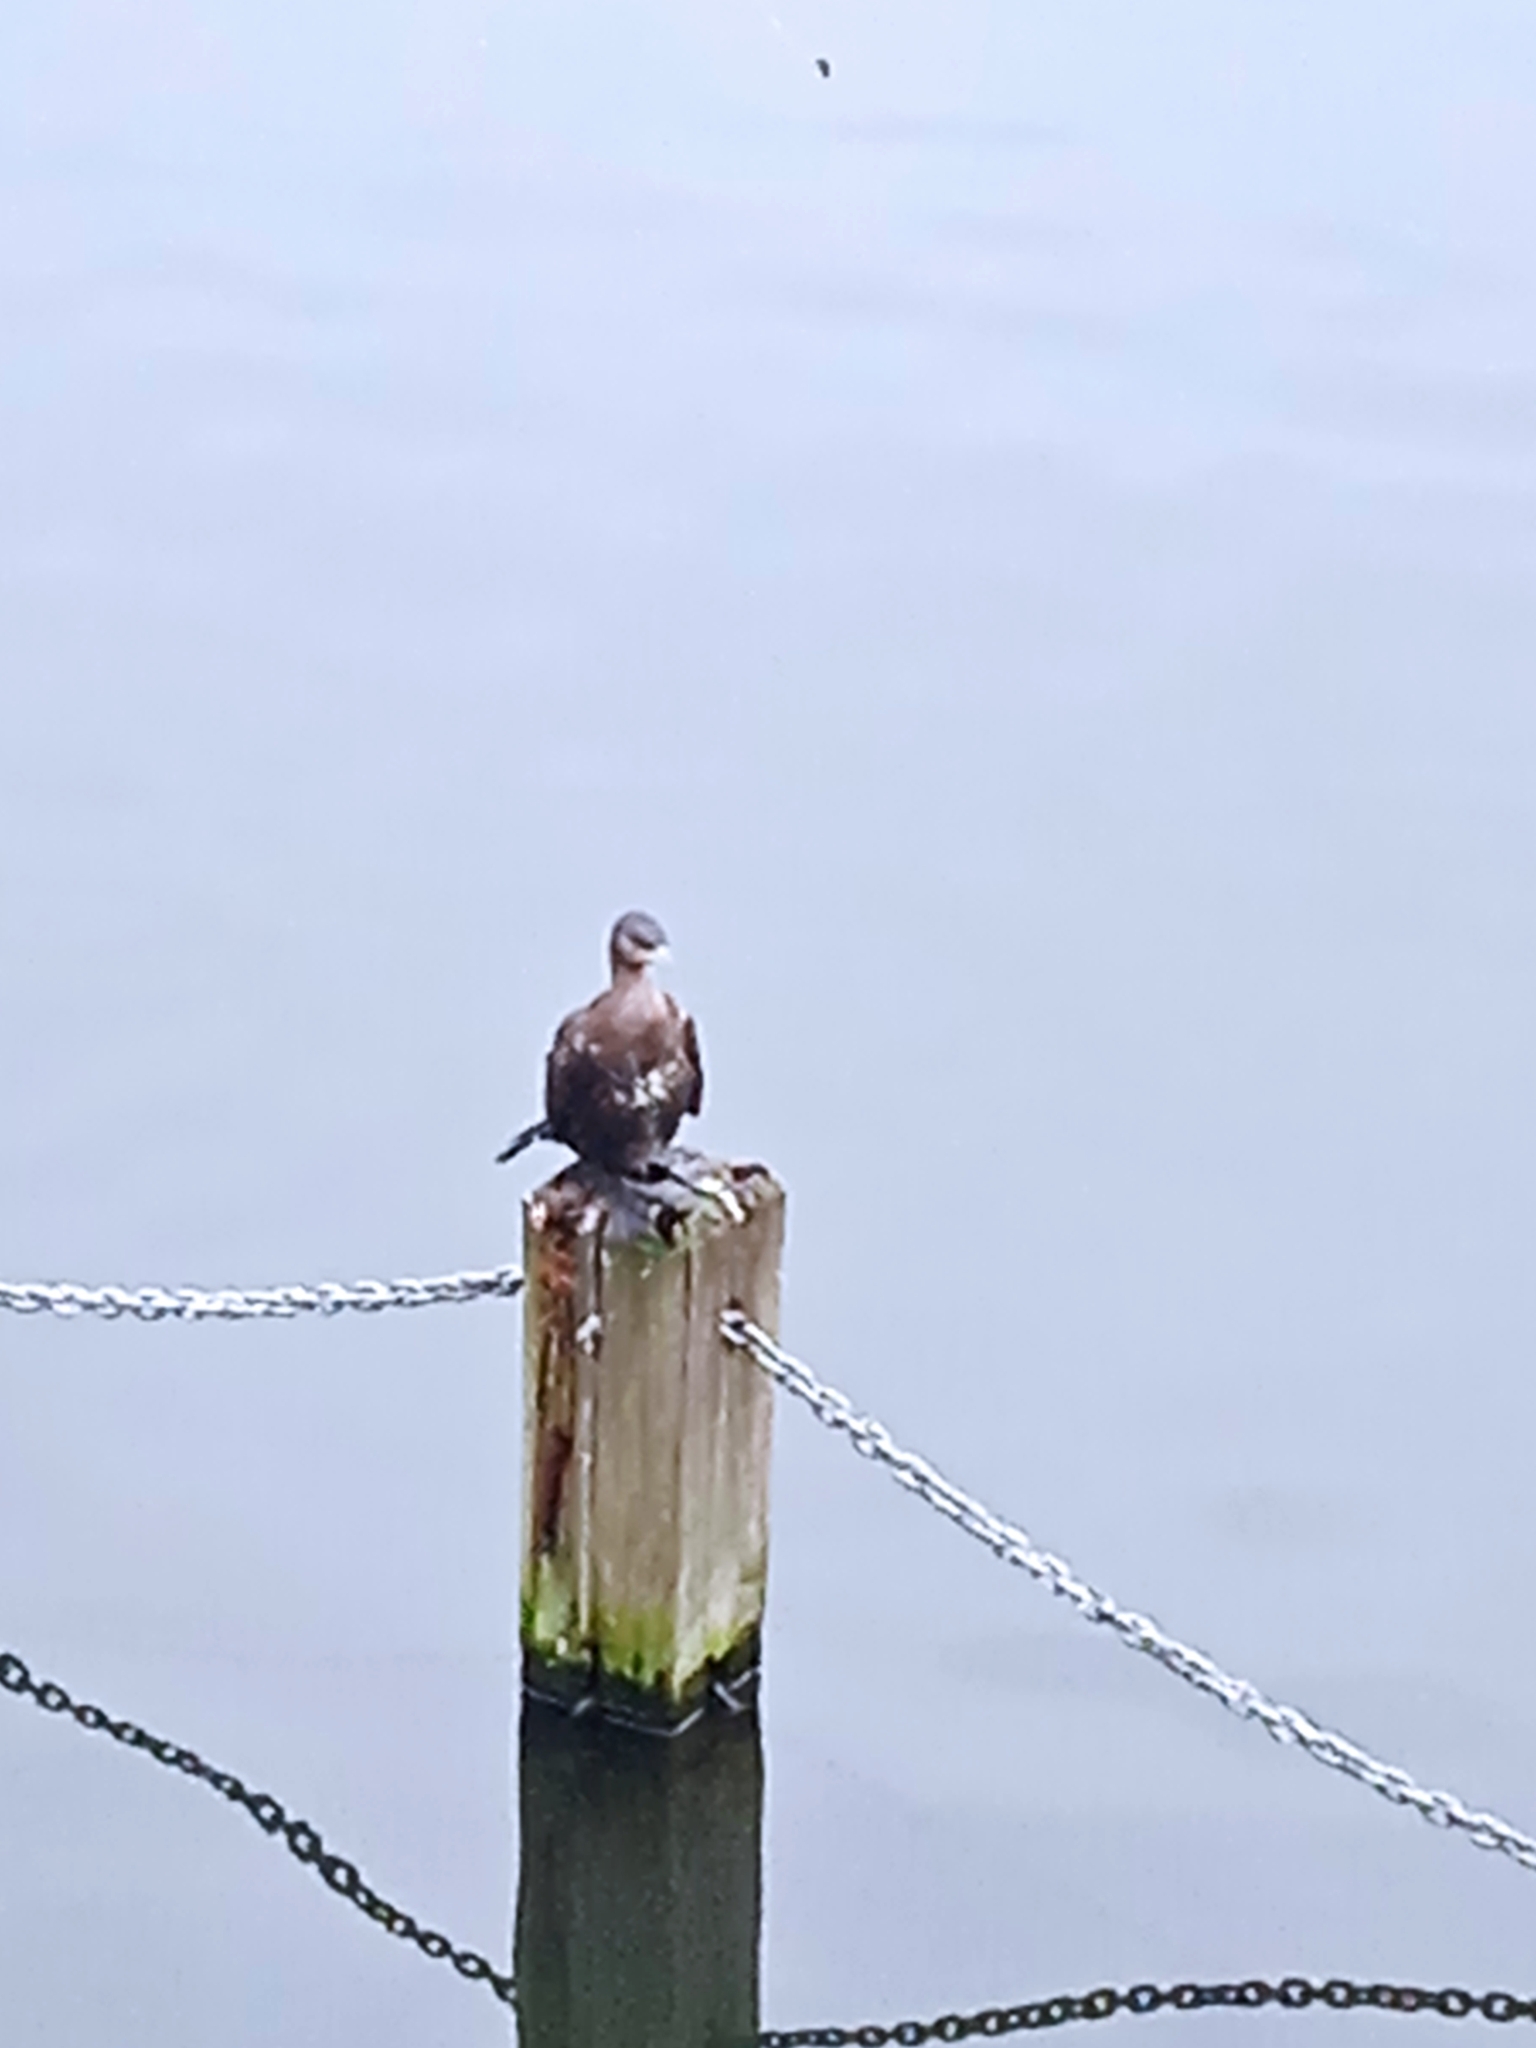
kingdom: Animalia
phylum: Chordata
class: Aves
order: Suliformes
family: Phalacrocoracidae
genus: Phalacrocorax
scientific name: Phalacrocorax carbo
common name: Great cormorant
